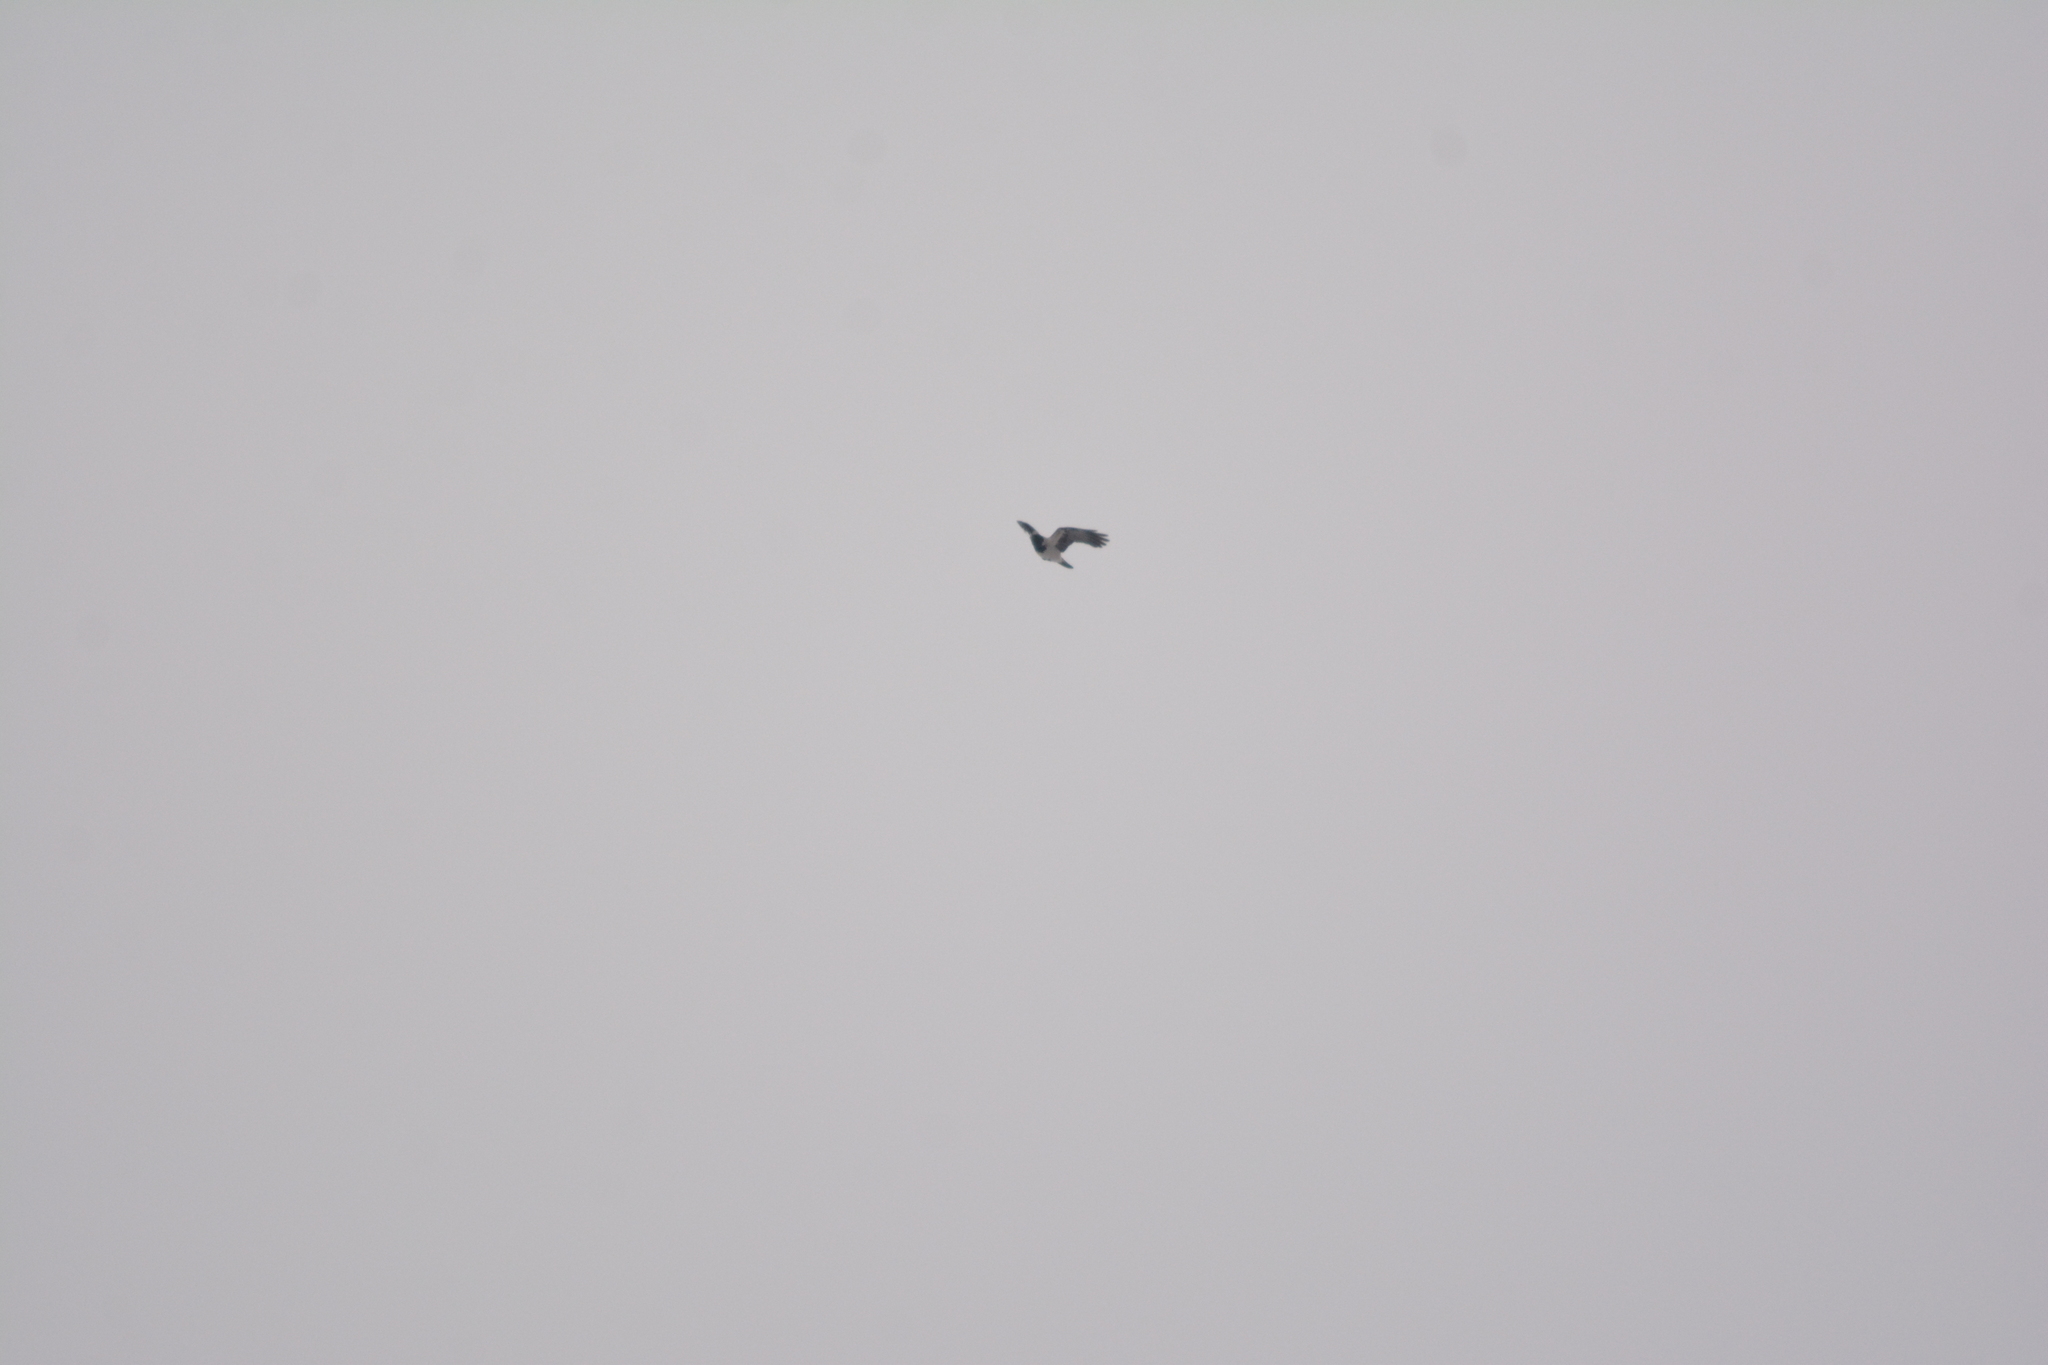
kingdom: Animalia
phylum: Chordata
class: Aves
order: Passeriformes
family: Corvidae
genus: Corvus
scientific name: Corvus cornix
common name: Hooded crow
